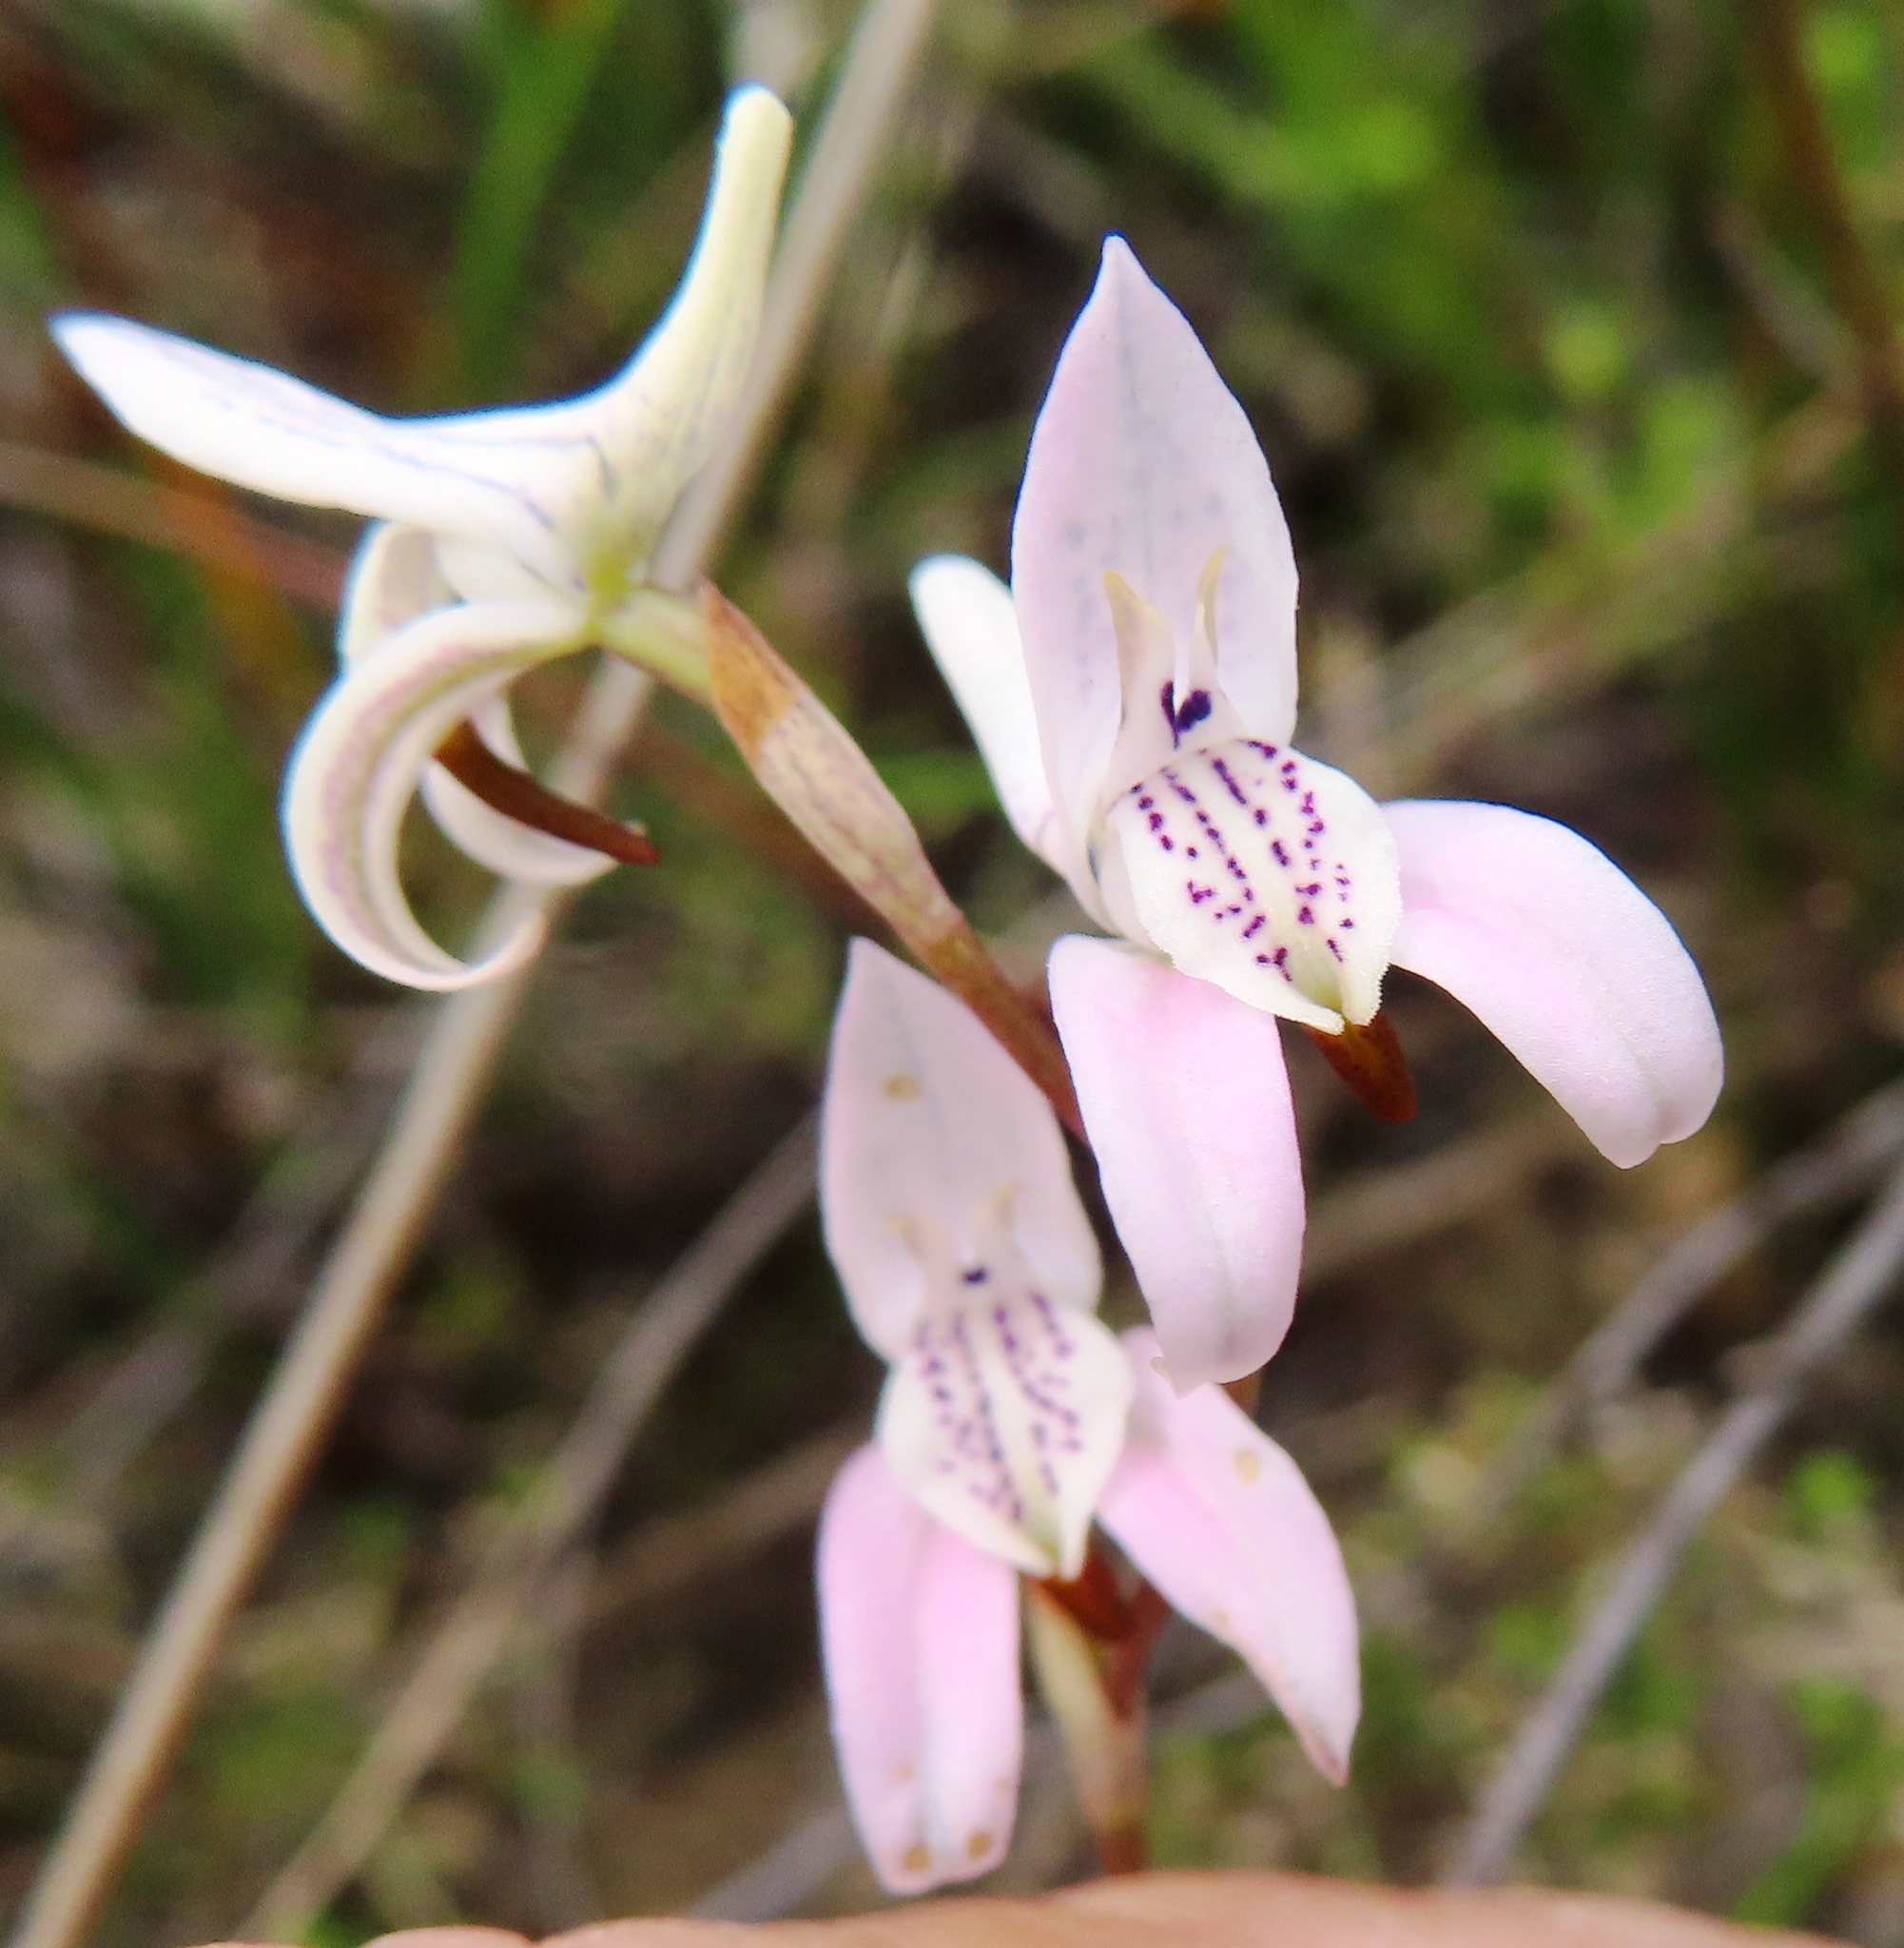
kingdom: Plantae
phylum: Tracheophyta
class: Liliopsida
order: Asparagales
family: Orchidaceae
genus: Disa
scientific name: Disa bifida
